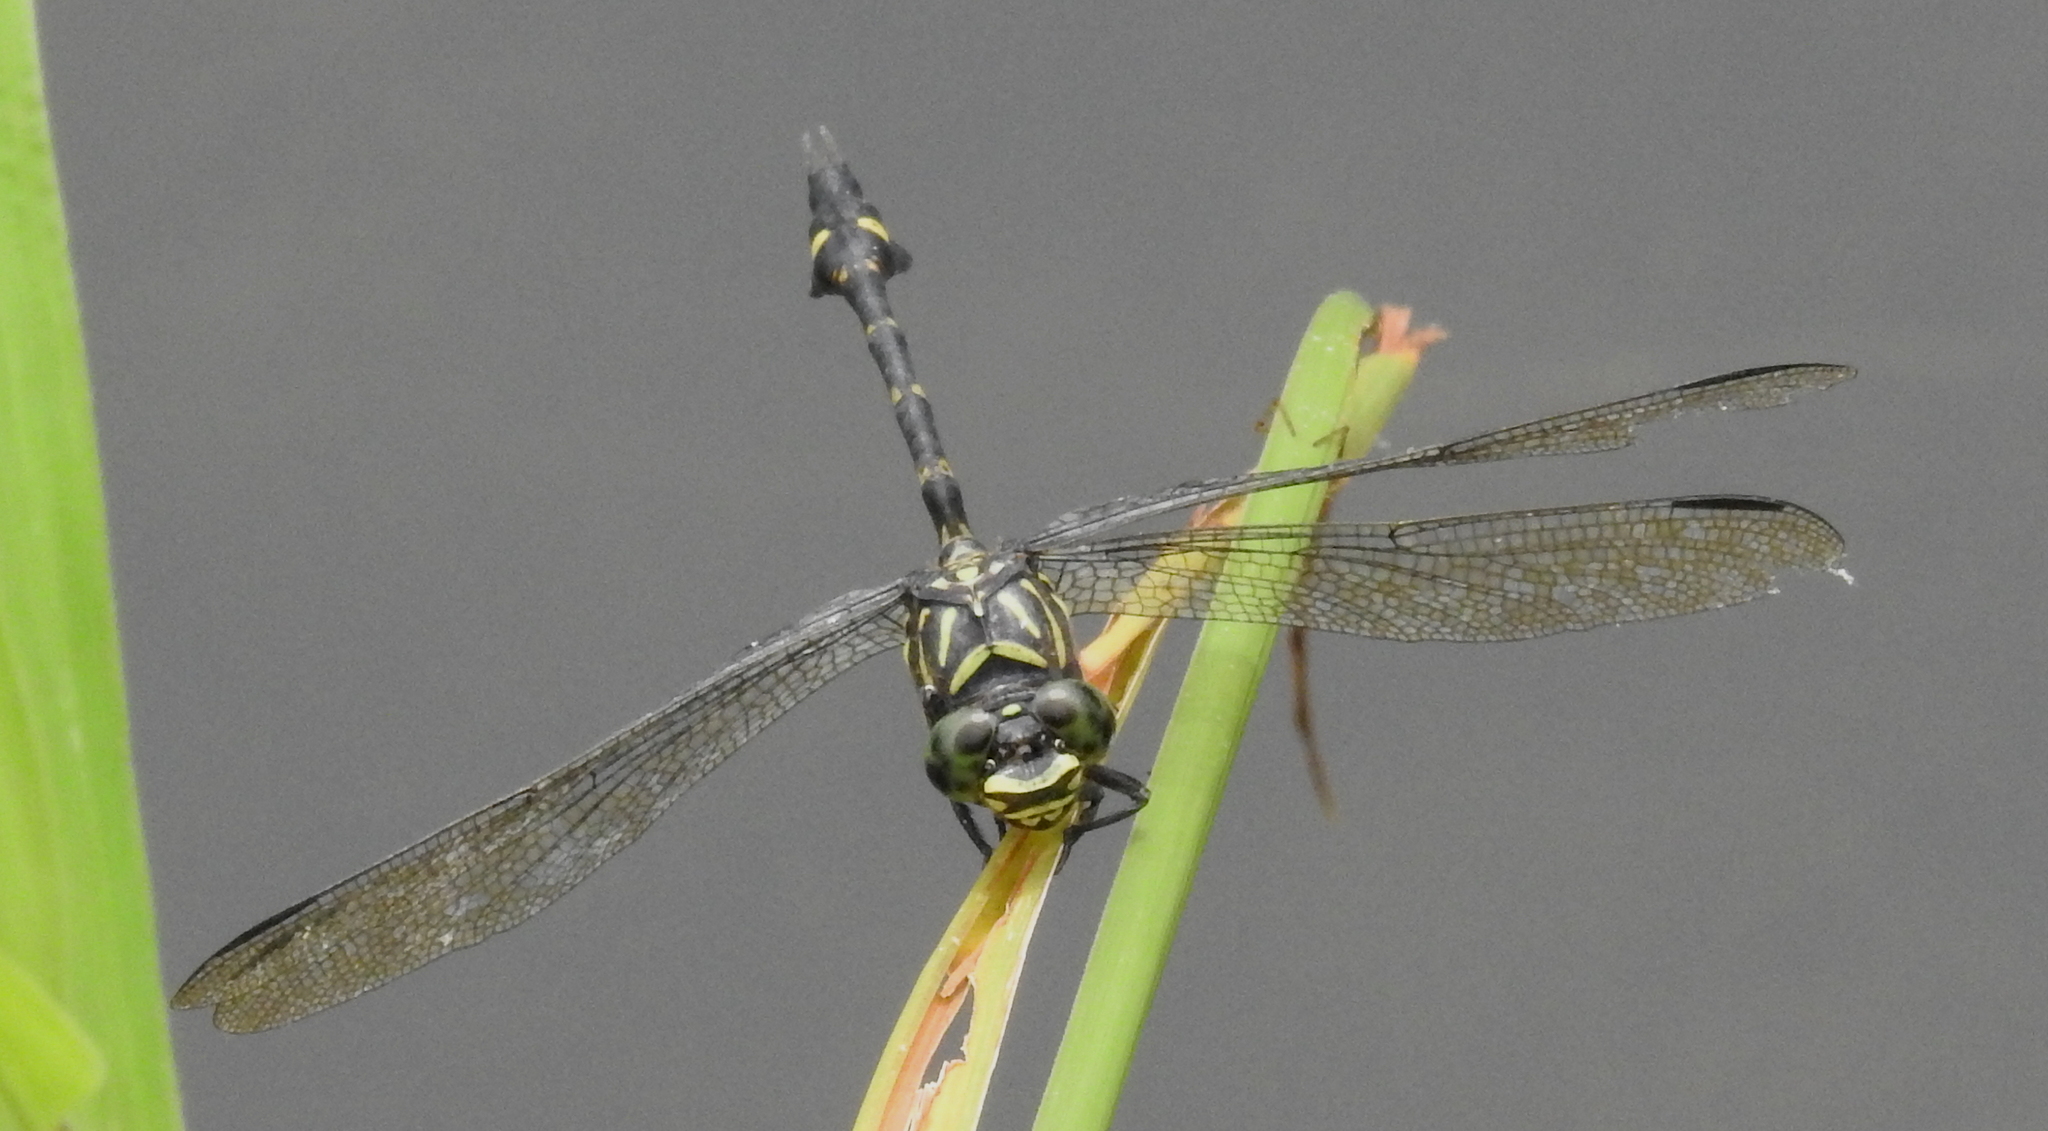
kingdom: Animalia
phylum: Arthropoda
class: Insecta
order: Odonata
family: Gomphidae
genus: Ictinogomphus
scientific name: Ictinogomphus lieftincki
